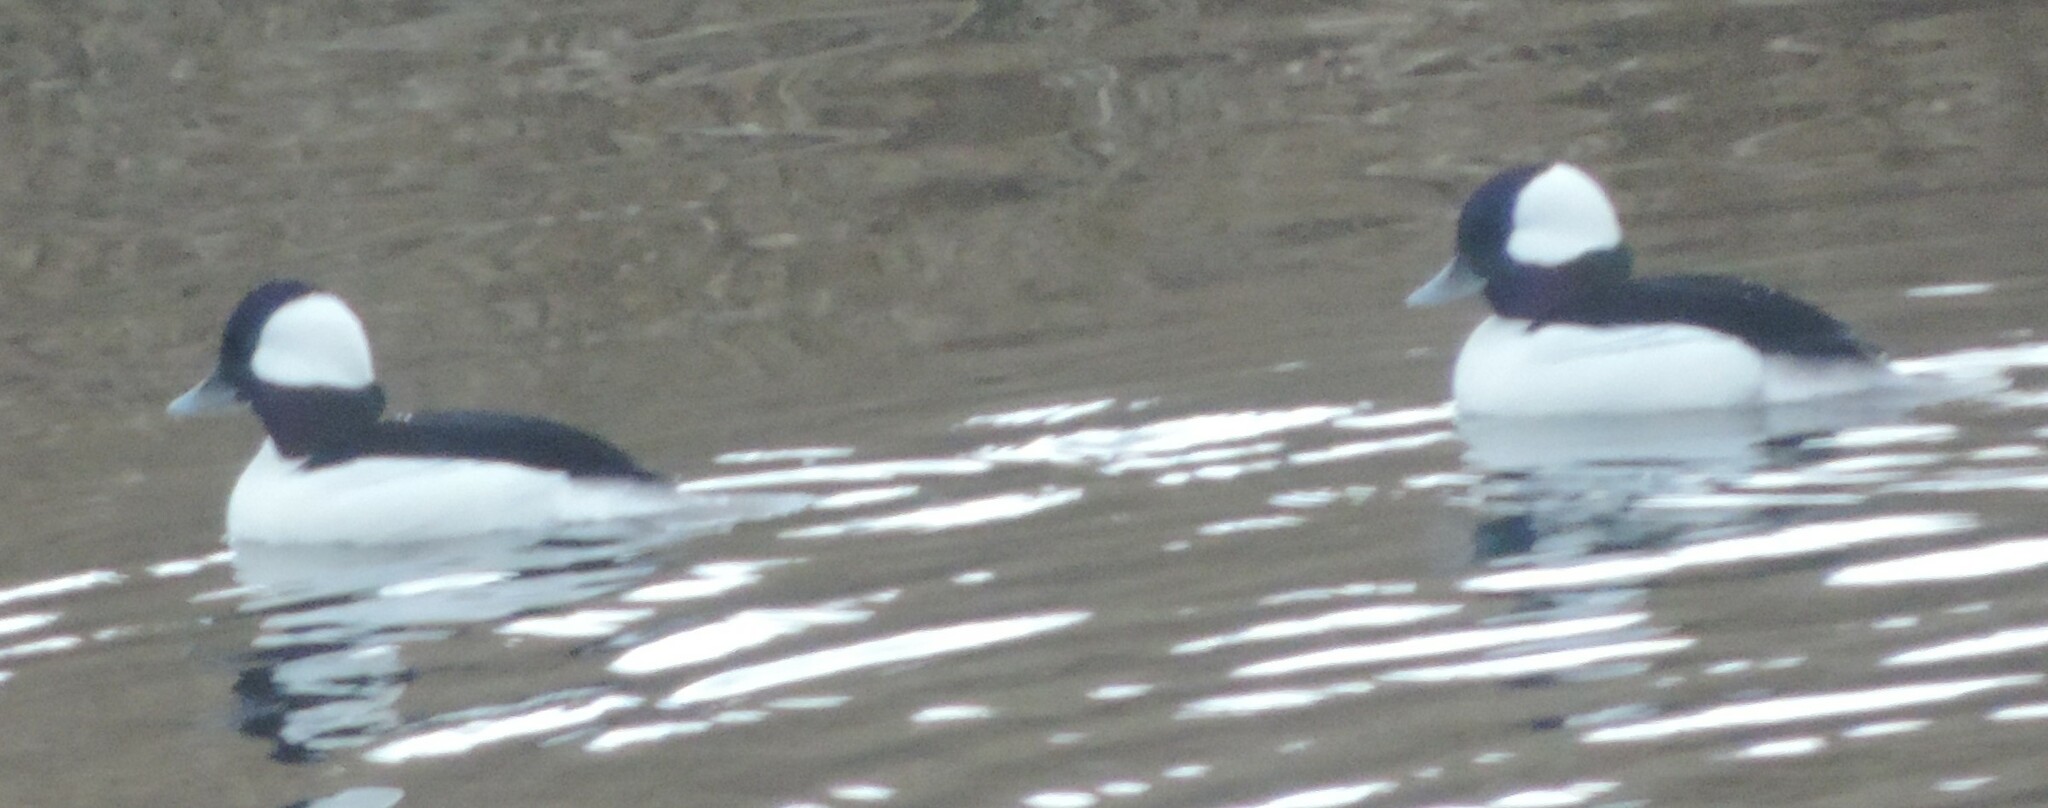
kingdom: Animalia
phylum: Chordata
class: Aves
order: Anseriformes
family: Anatidae
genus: Bucephala
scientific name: Bucephala albeola
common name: Bufflehead
